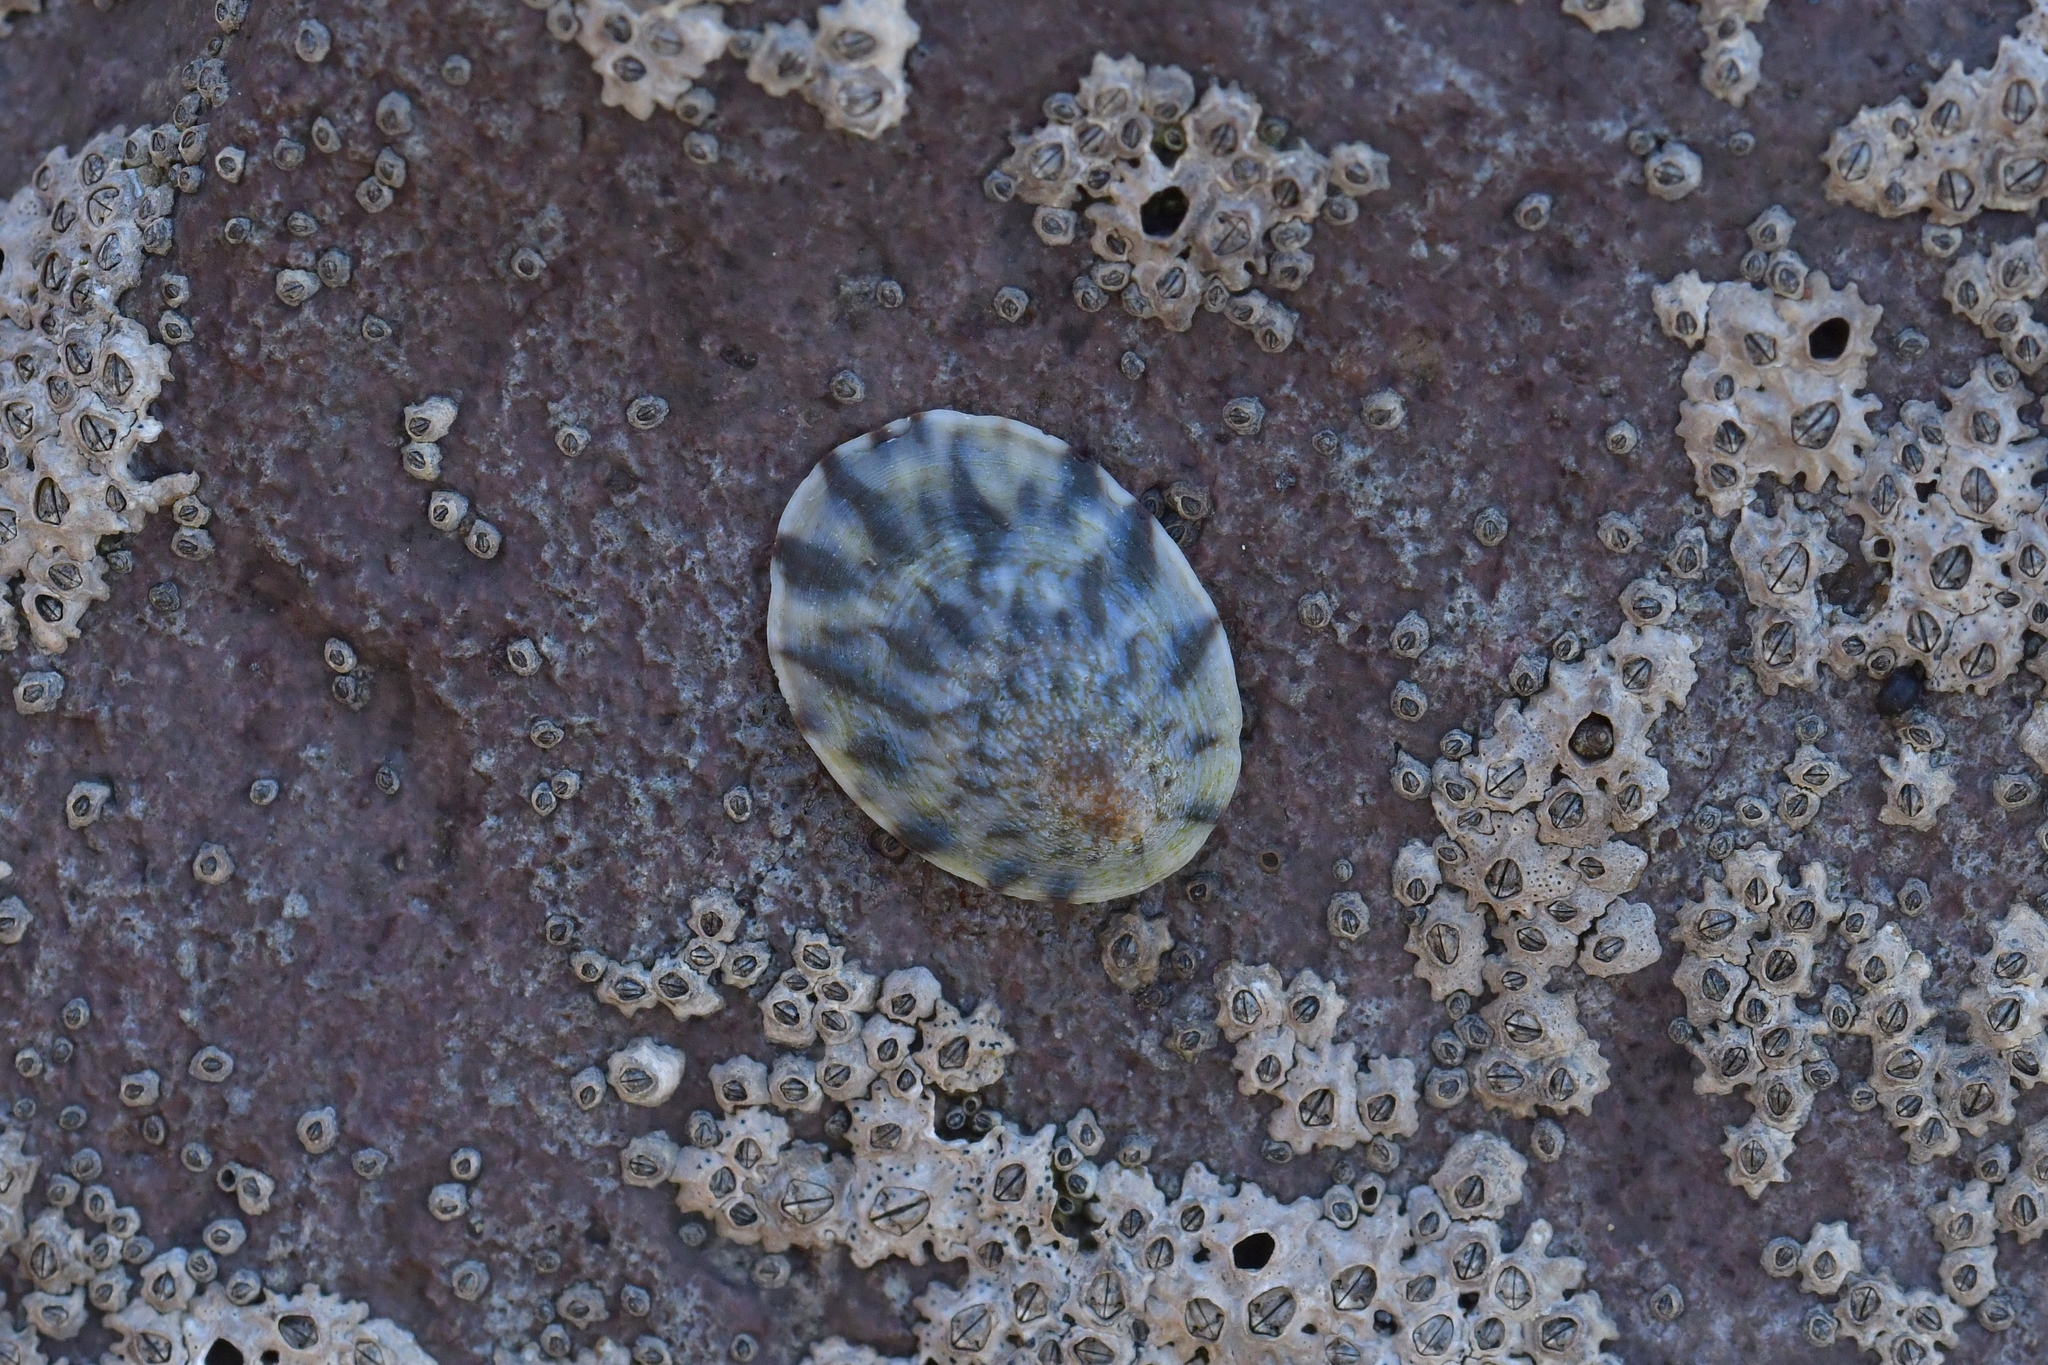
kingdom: Animalia
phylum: Mollusca
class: Gastropoda
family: Nacellidae
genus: Cellana
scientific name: Cellana radians
